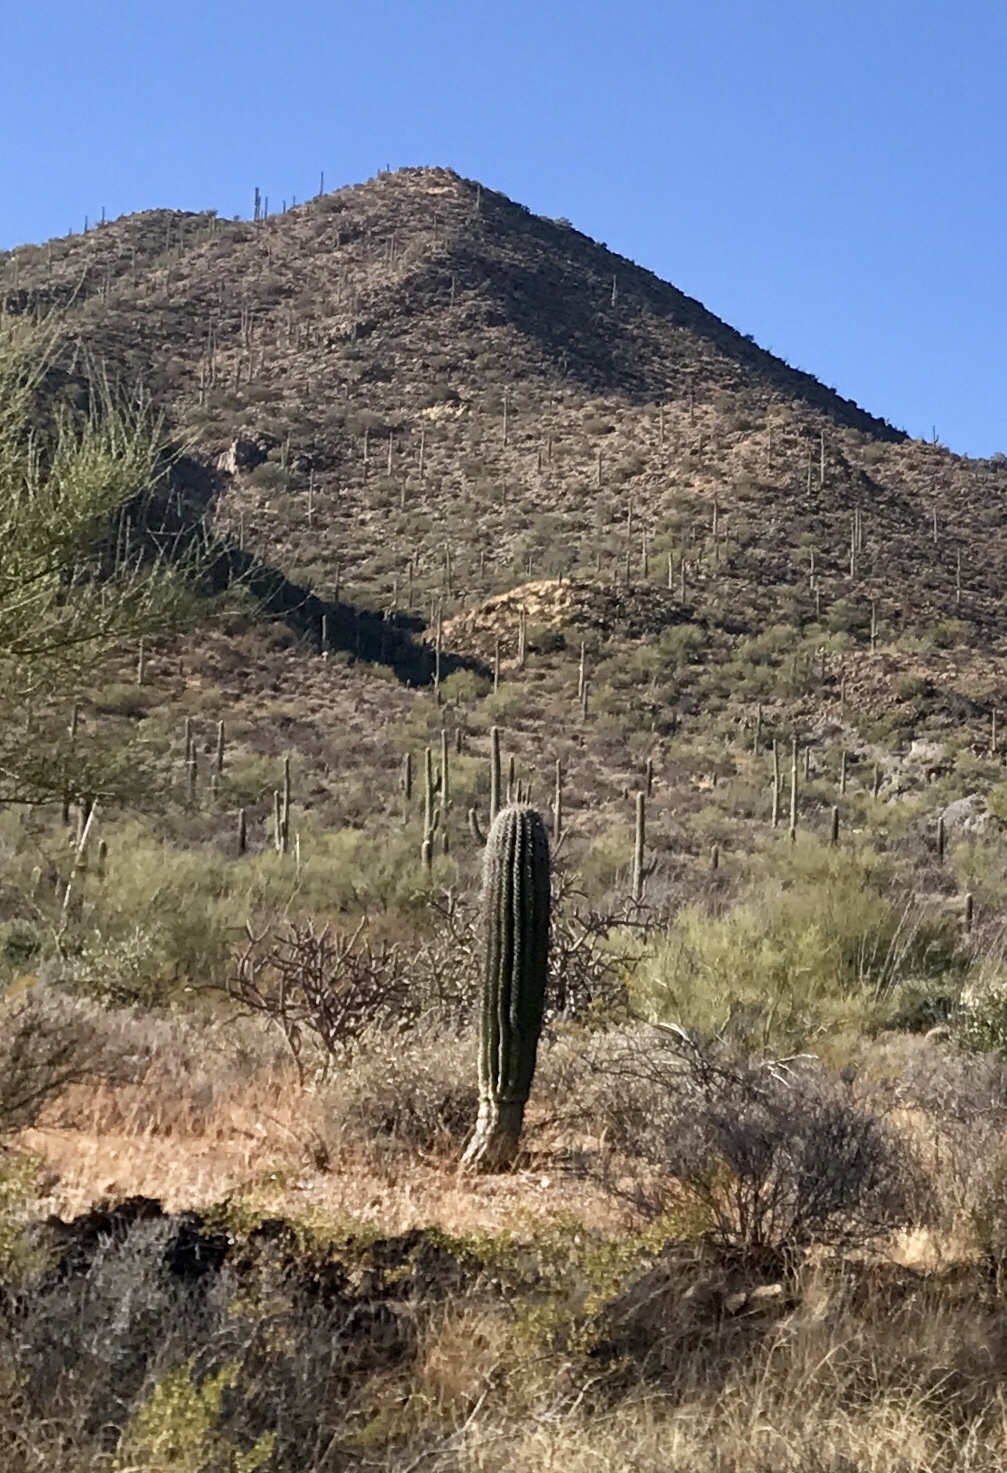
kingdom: Plantae
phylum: Tracheophyta
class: Magnoliopsida
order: Caryophyllales
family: Cactaceae
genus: Carnegiea
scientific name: Carnegiea gigantea
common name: Saguaro
